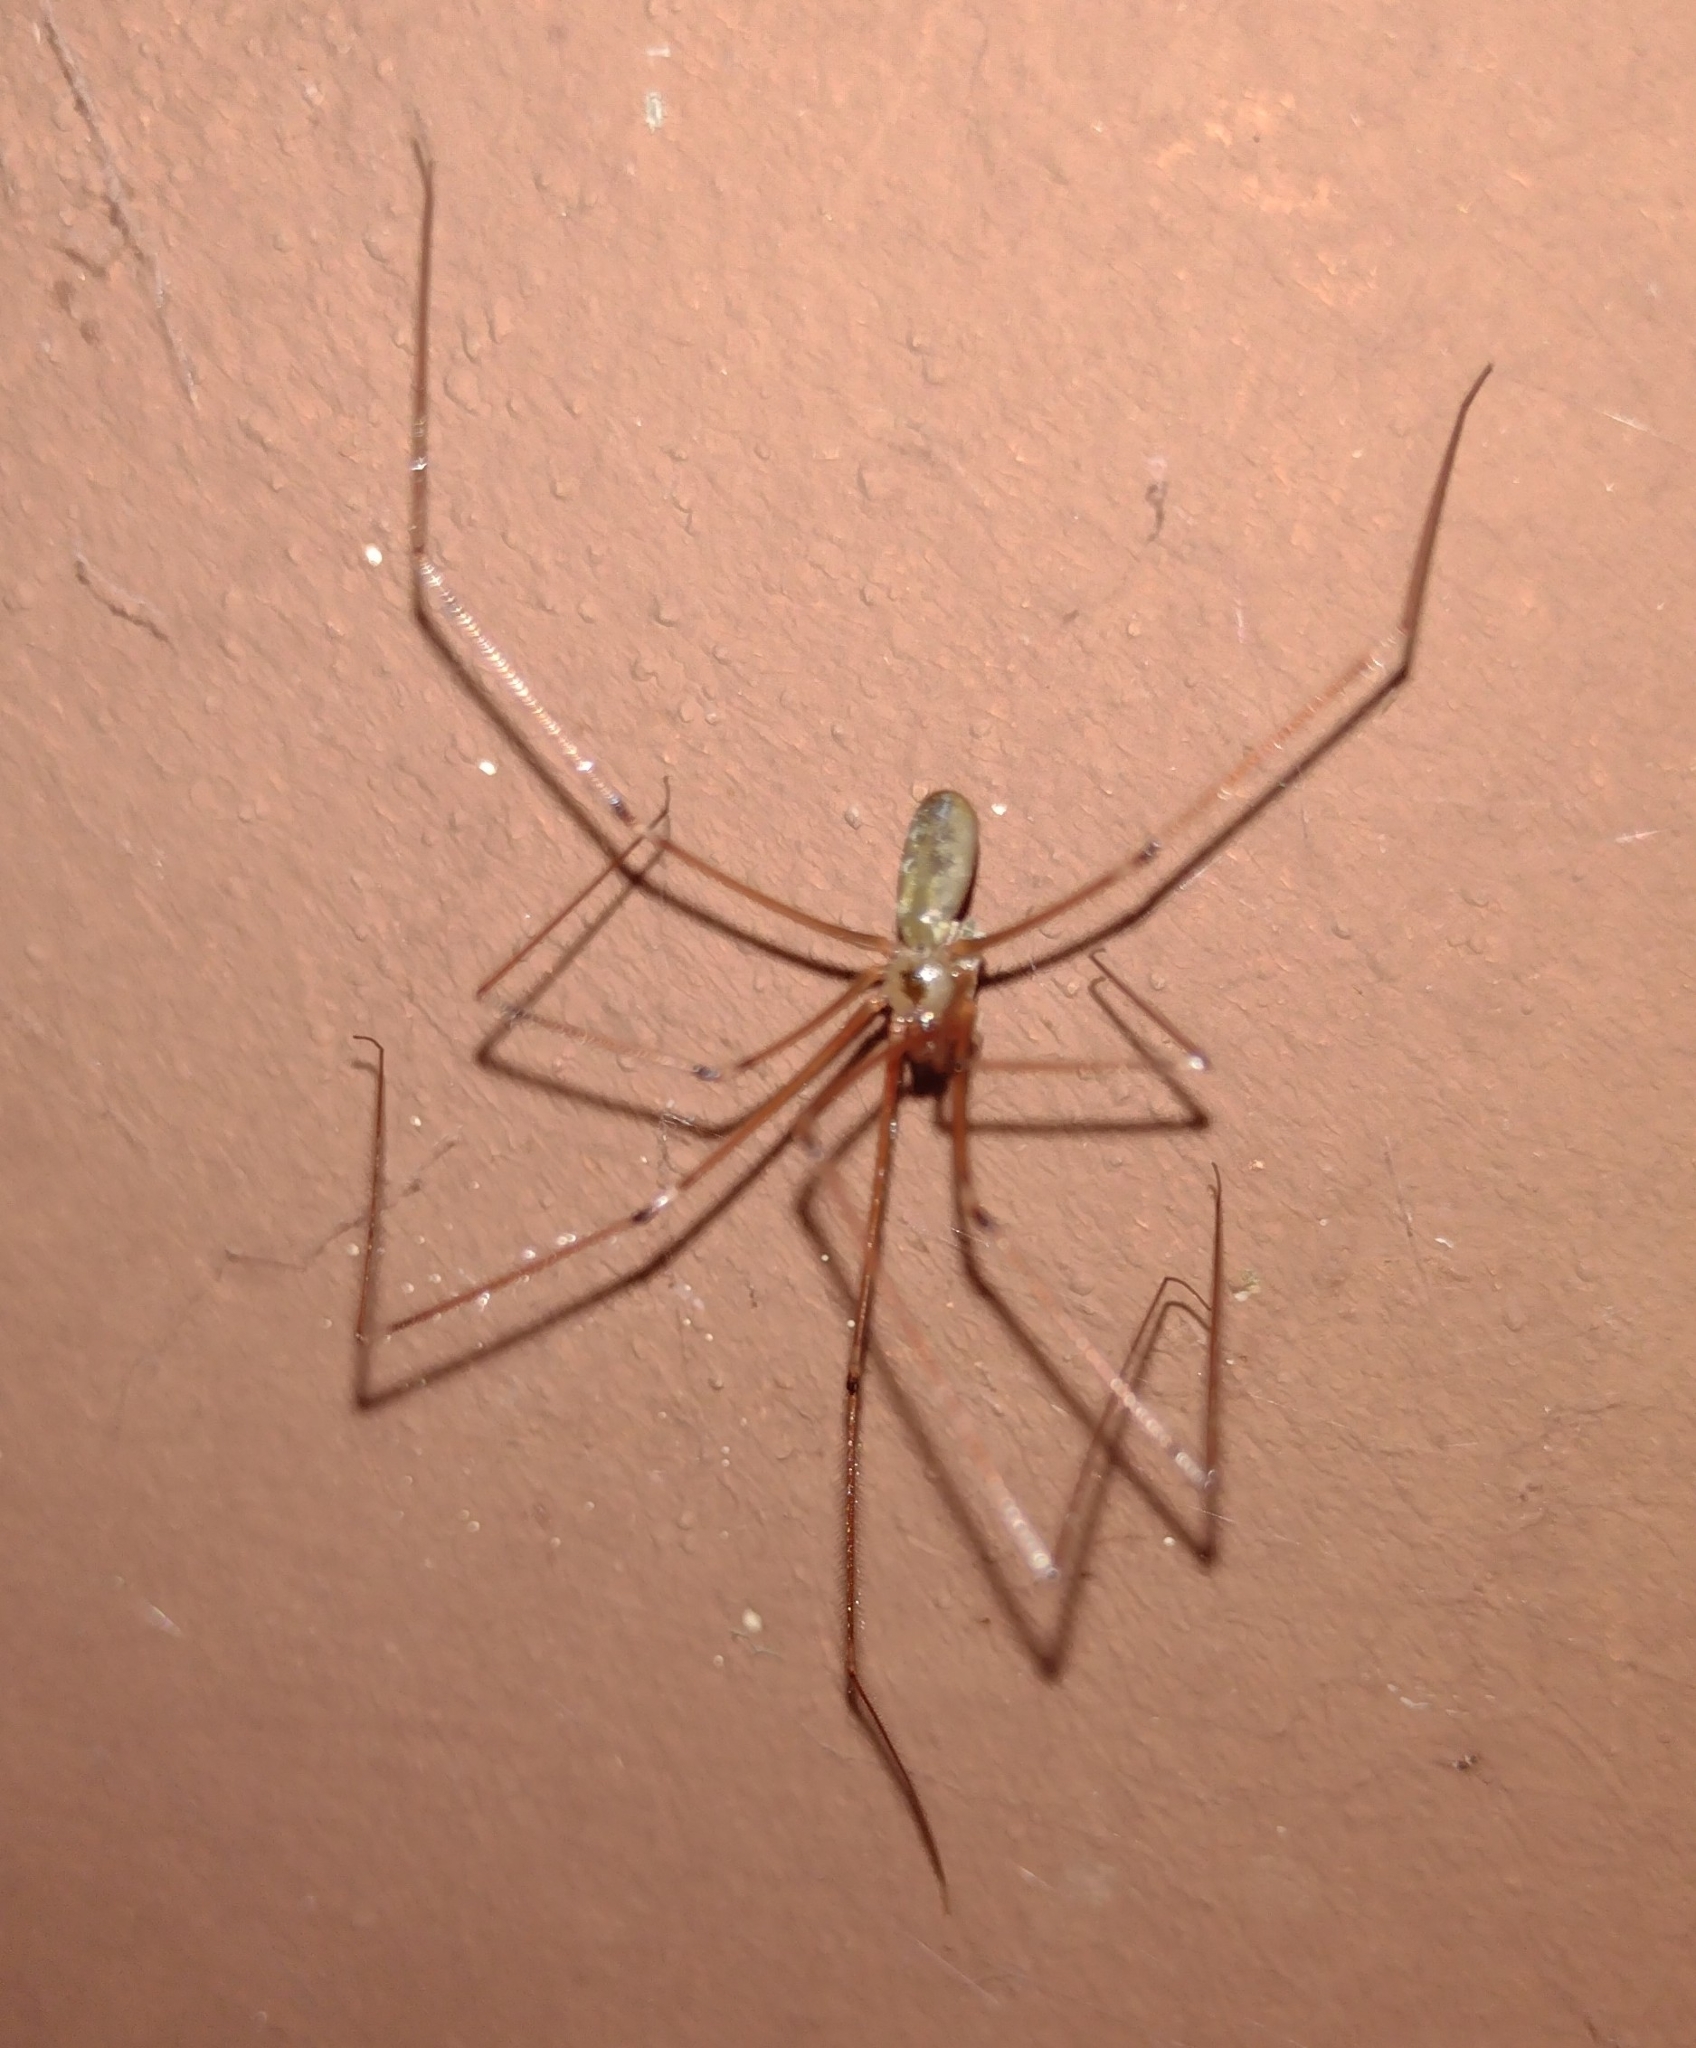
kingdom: Animalia
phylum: Arthropoda
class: Arachnida
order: Araneae
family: Pholcidae
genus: Pholcus
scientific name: Pholcus phalangioides
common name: Longbodied cellar spider
